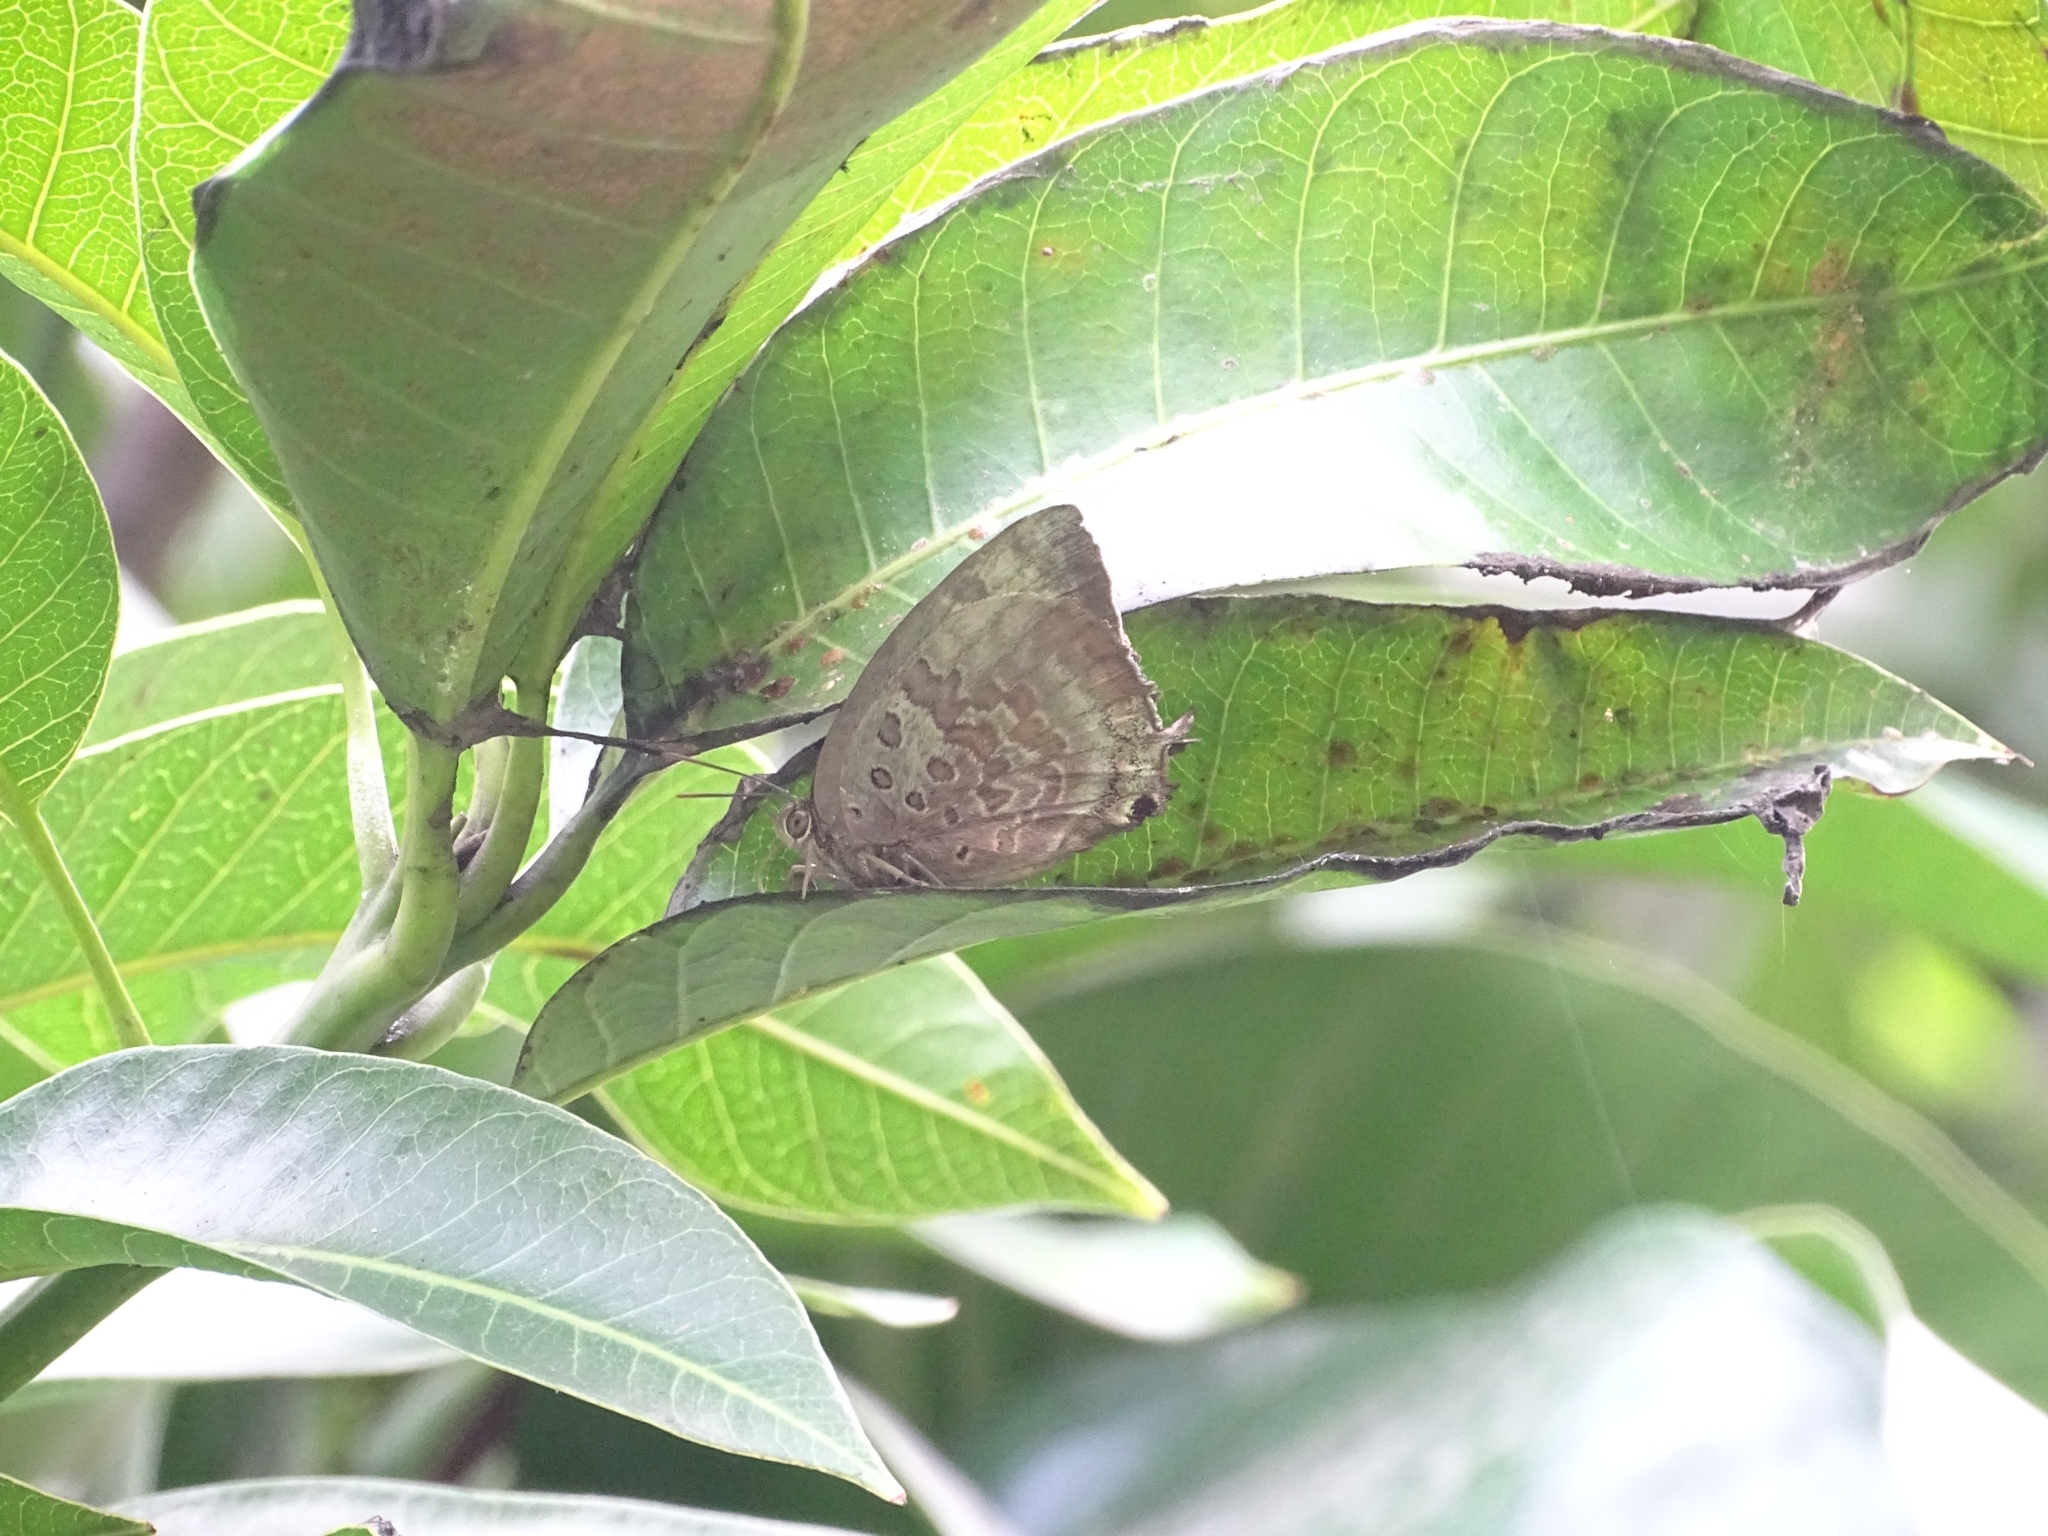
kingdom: Animalia
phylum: Arthropoda
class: Insecta
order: Lepidoptera
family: Lycaenidae
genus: Arhopala
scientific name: Arhopala amantes
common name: Large oakblue
